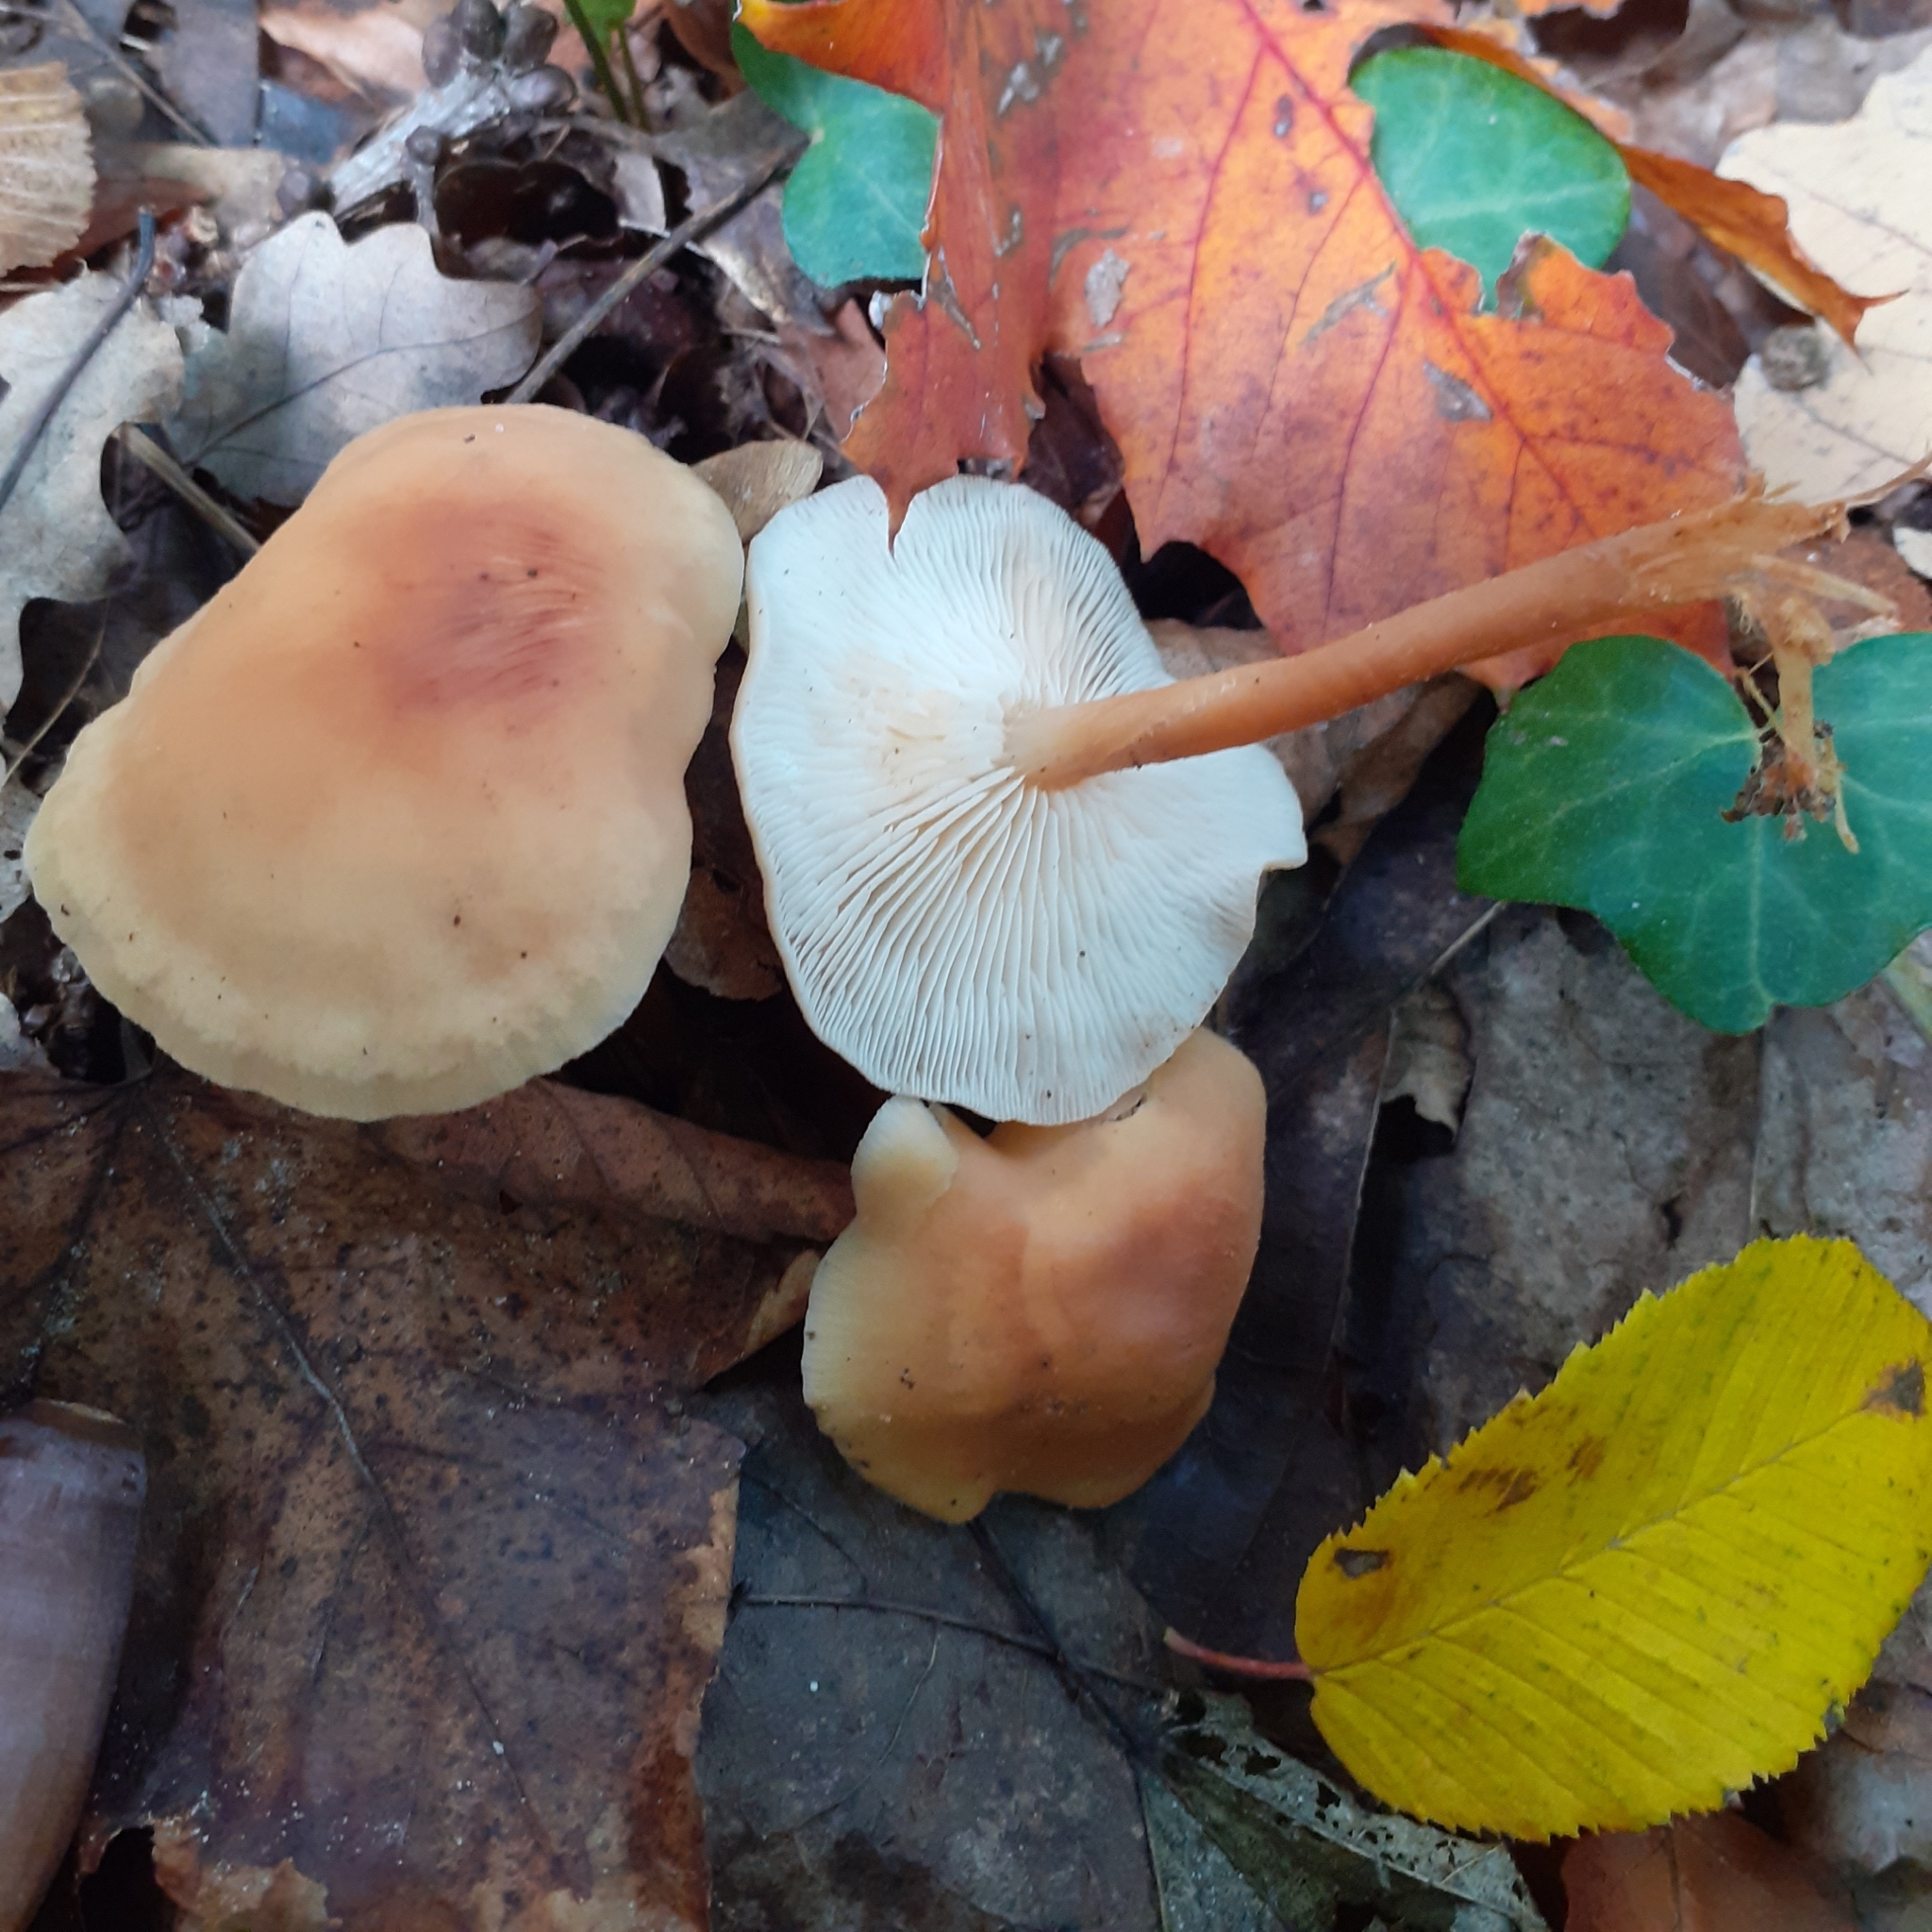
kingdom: Fungi
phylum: Basidiomycota
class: Agaricomycetes
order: Agaricales
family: Omphalotaceae
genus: Gymnopus
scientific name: Gymnopus dryophilus
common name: Penny top
